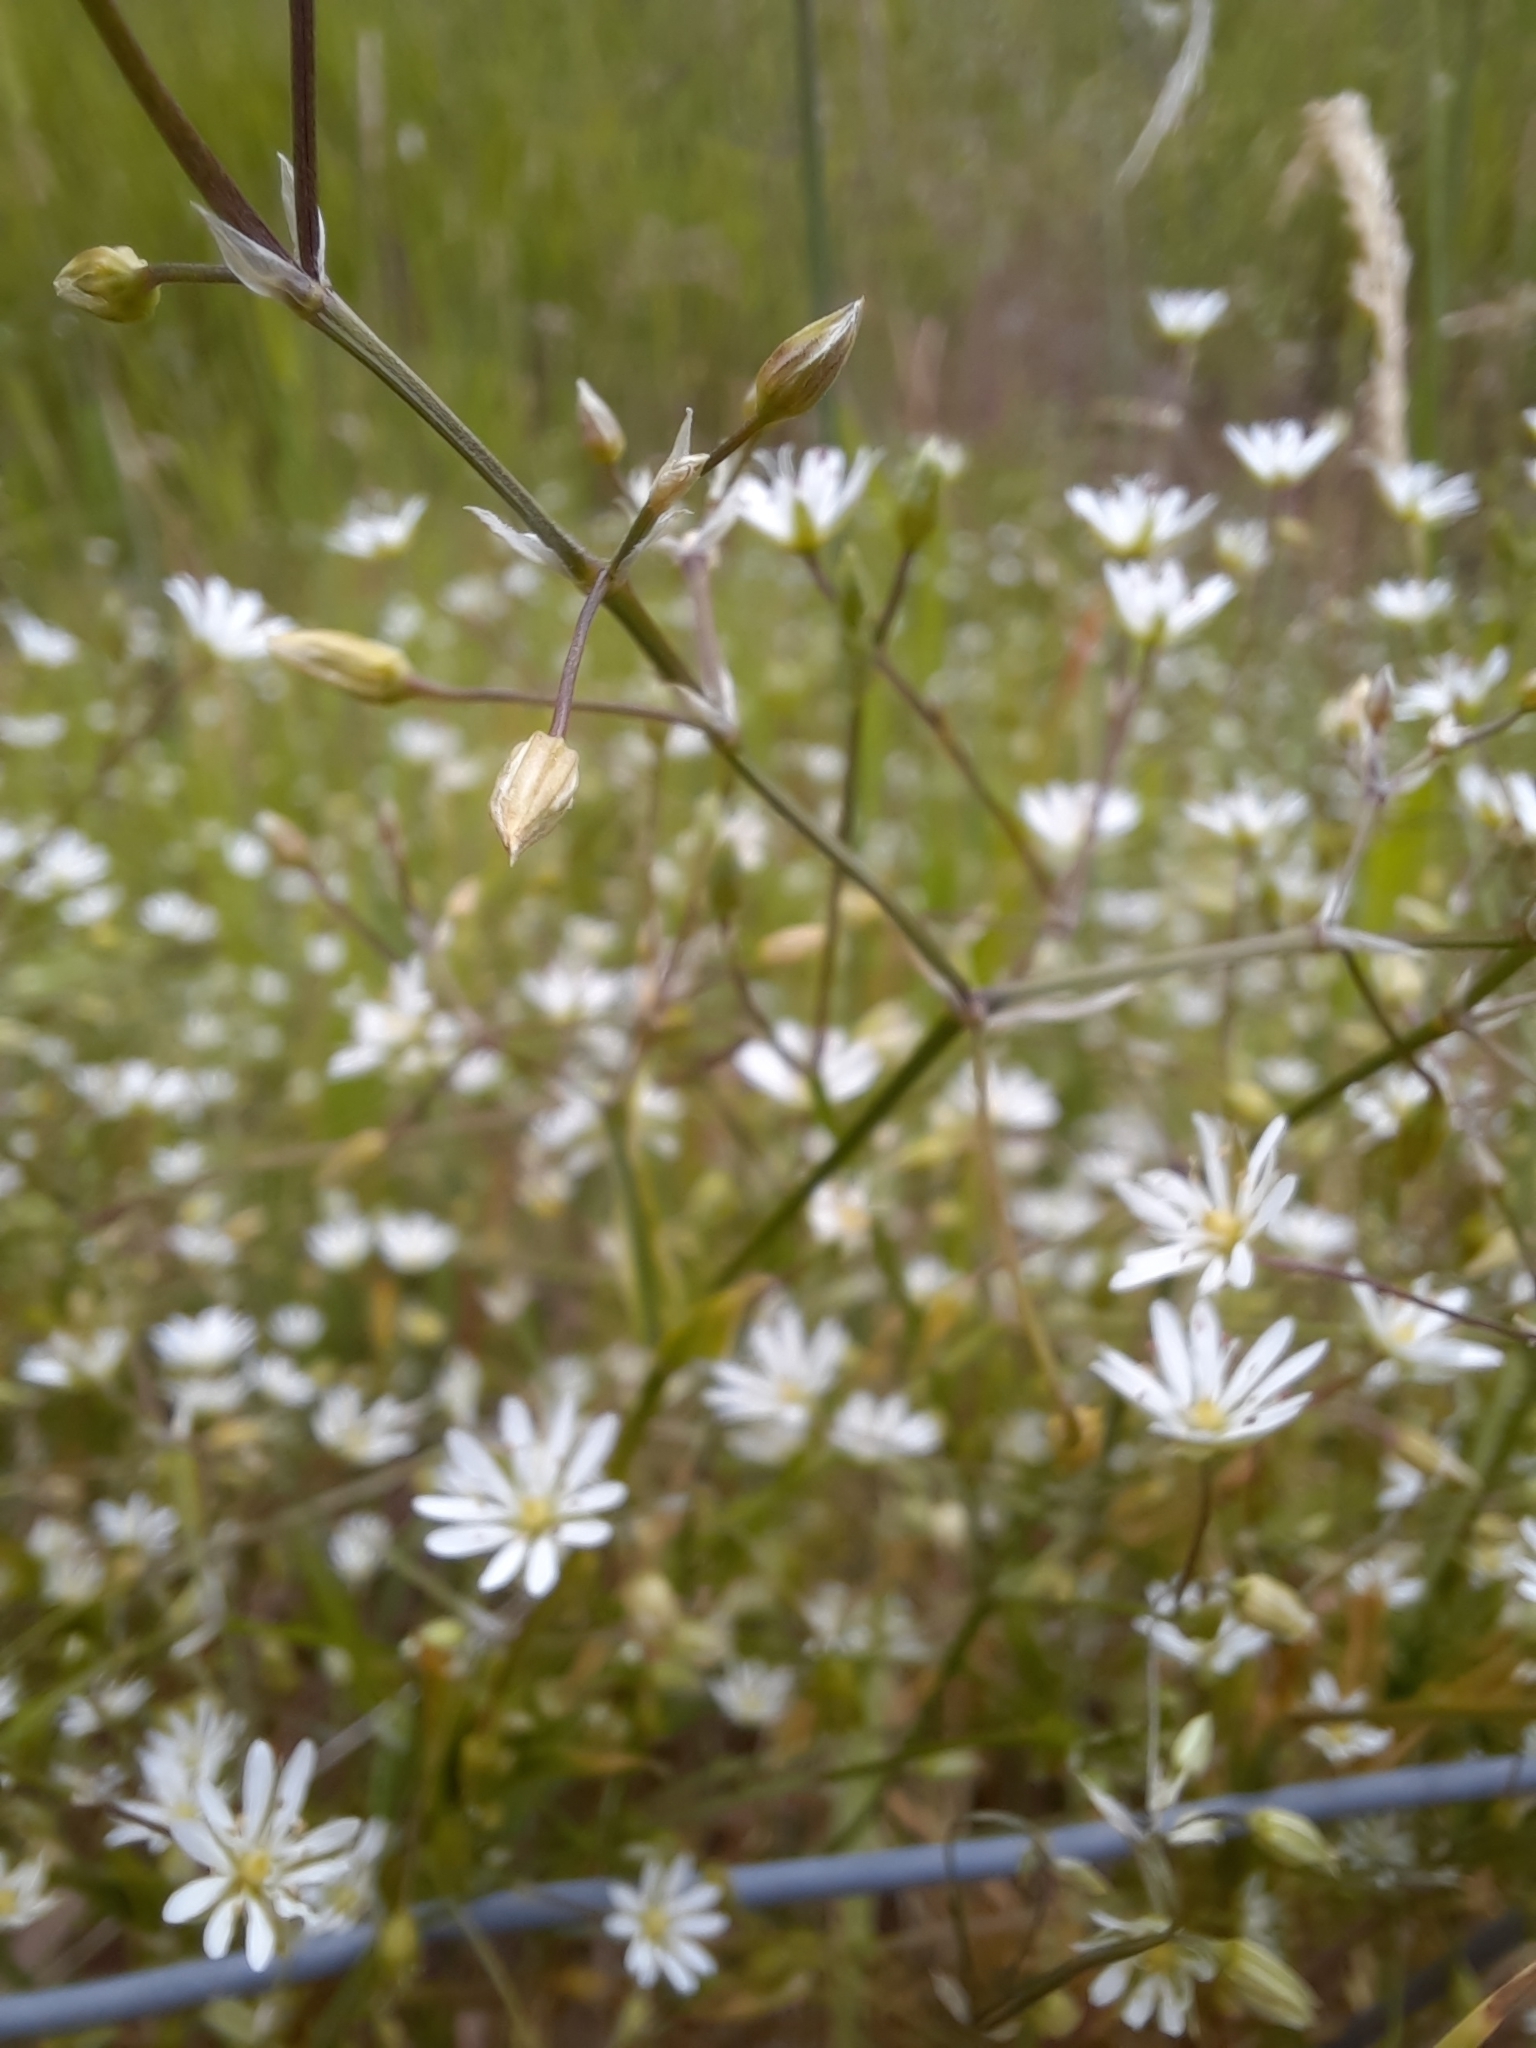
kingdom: Plantae
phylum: Tracheophyta
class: Magnoliopsida
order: Caryophyllales
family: Caryophyllaceae
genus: Stellaria
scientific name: Stellaria graminea
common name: Grass-like starwort
